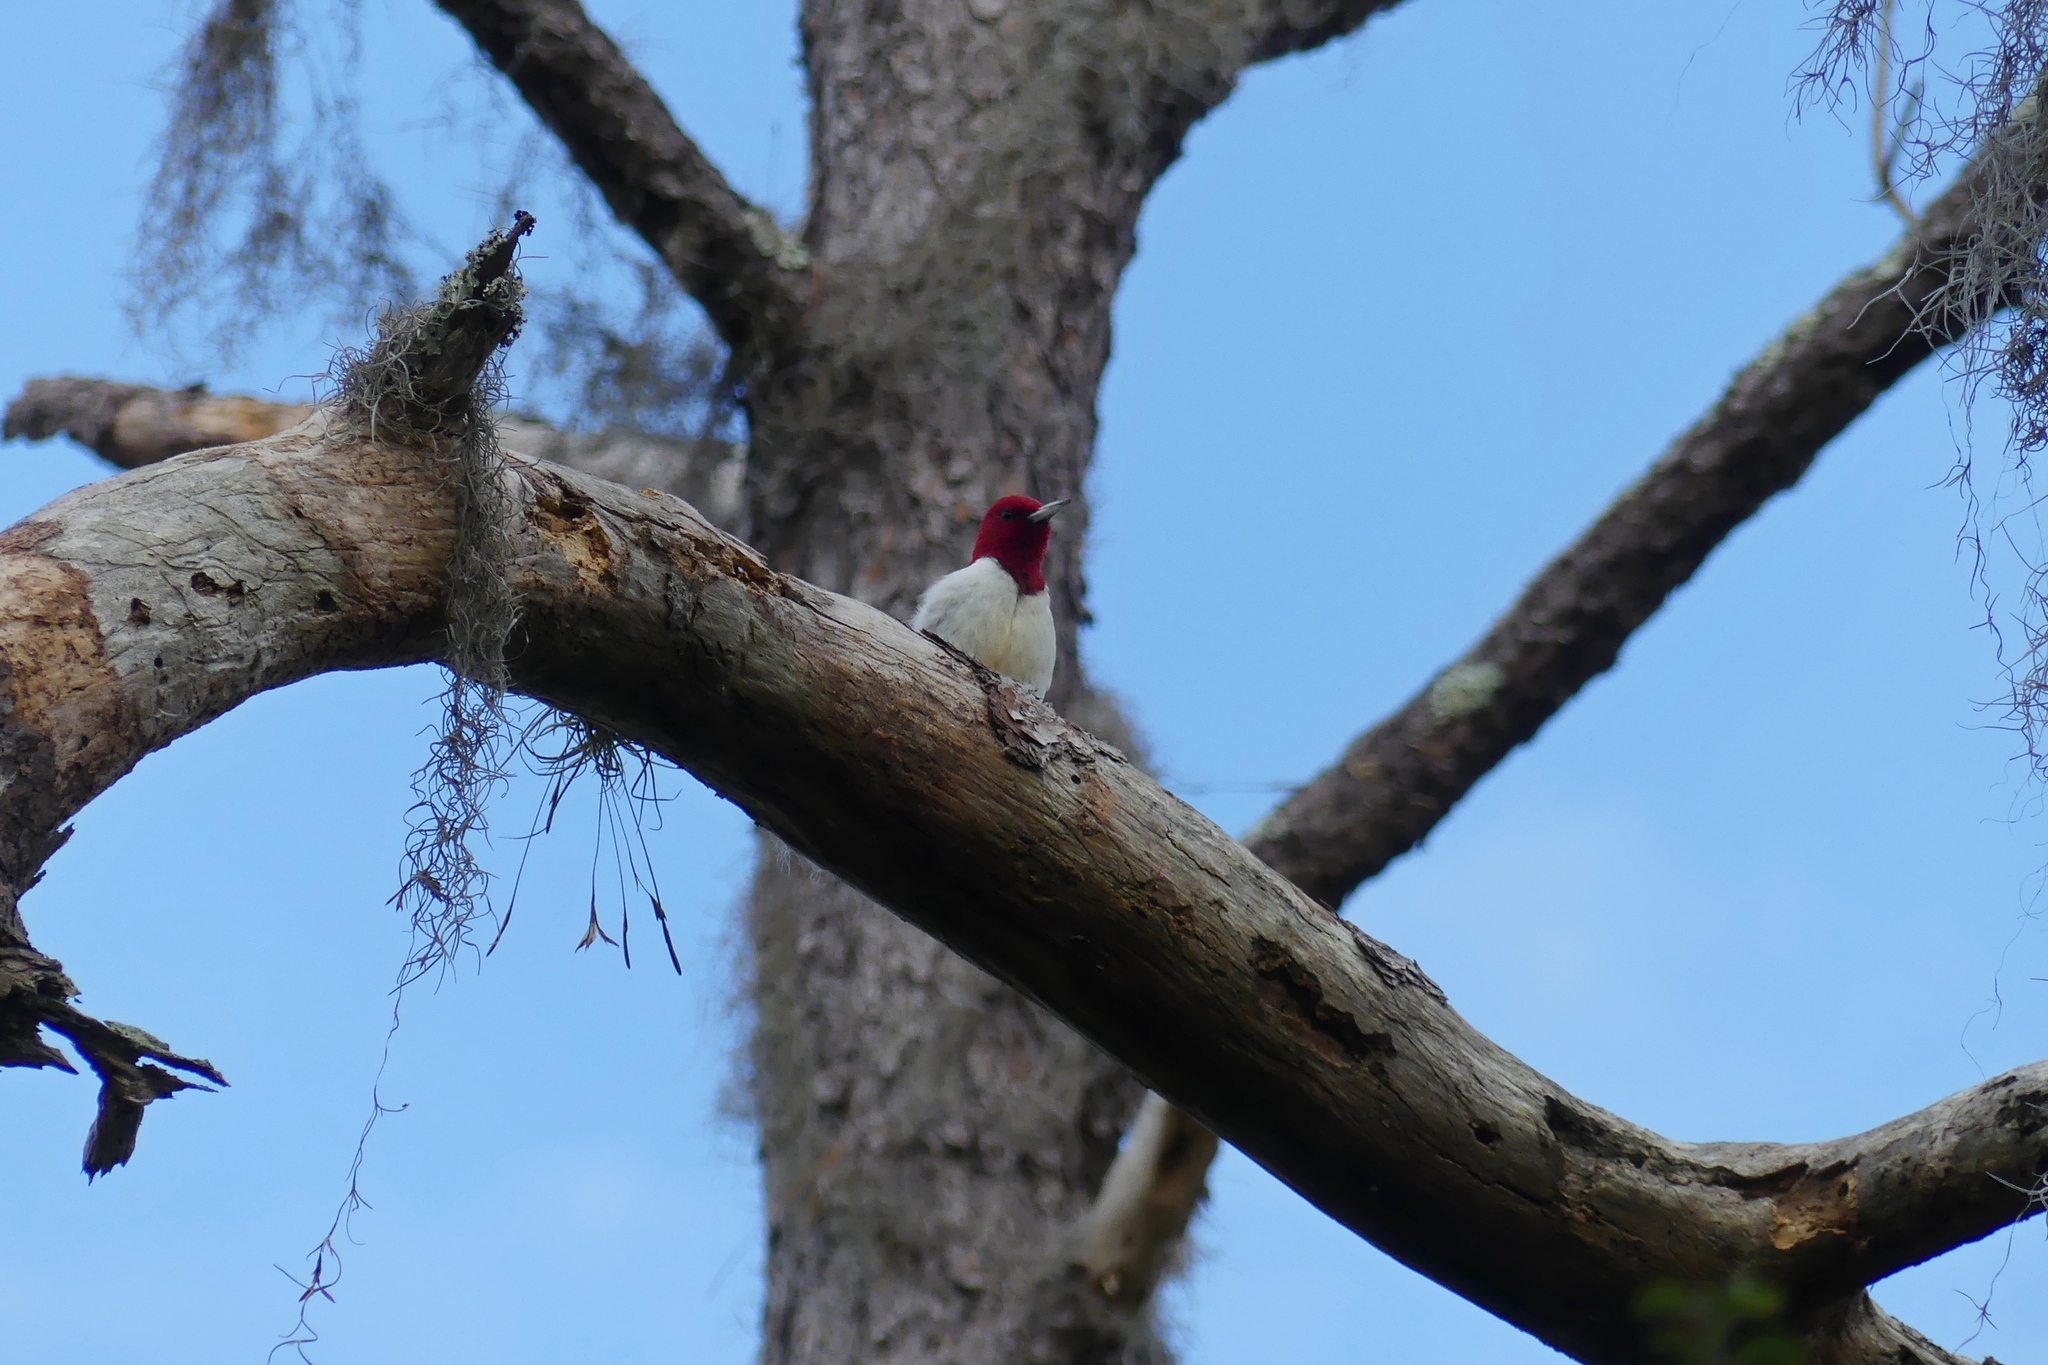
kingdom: Animalia
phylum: Chordata
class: Aves
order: Piciformes
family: Picidae
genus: Melanerpes
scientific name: Melanerpes erythrocephalus
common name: Red-headed woodpecker
